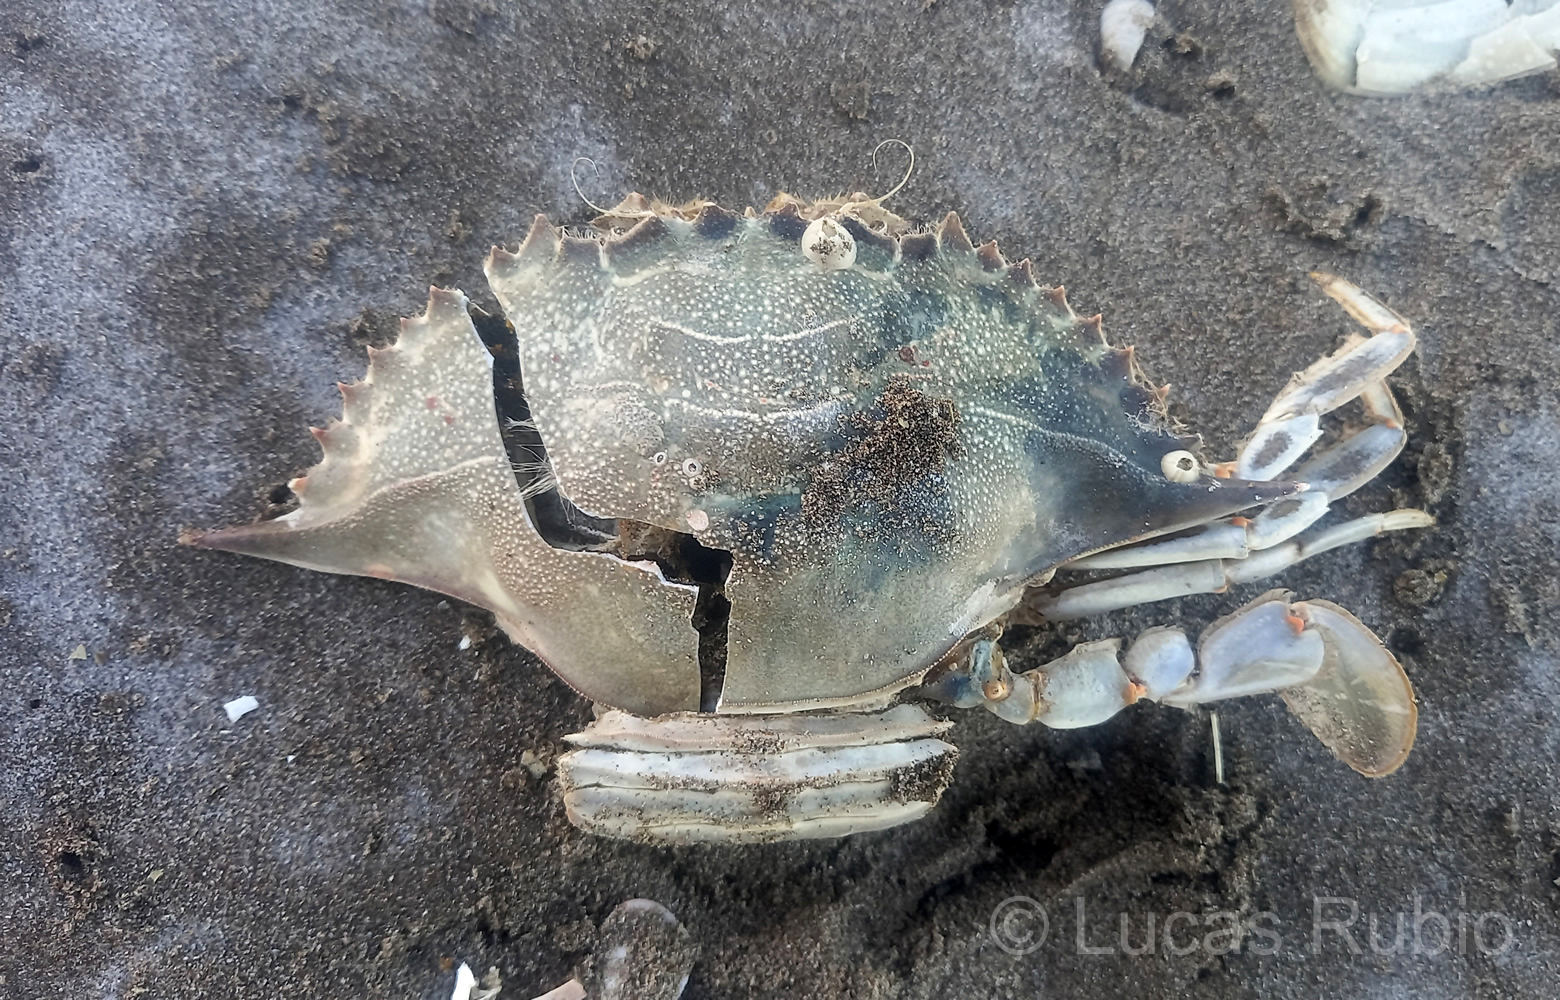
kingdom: Animalia
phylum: Arthropoda
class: Malacostraca
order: Decapoda
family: Portunidae
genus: Callinectes
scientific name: Callinectes sapidus
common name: Blue crab
